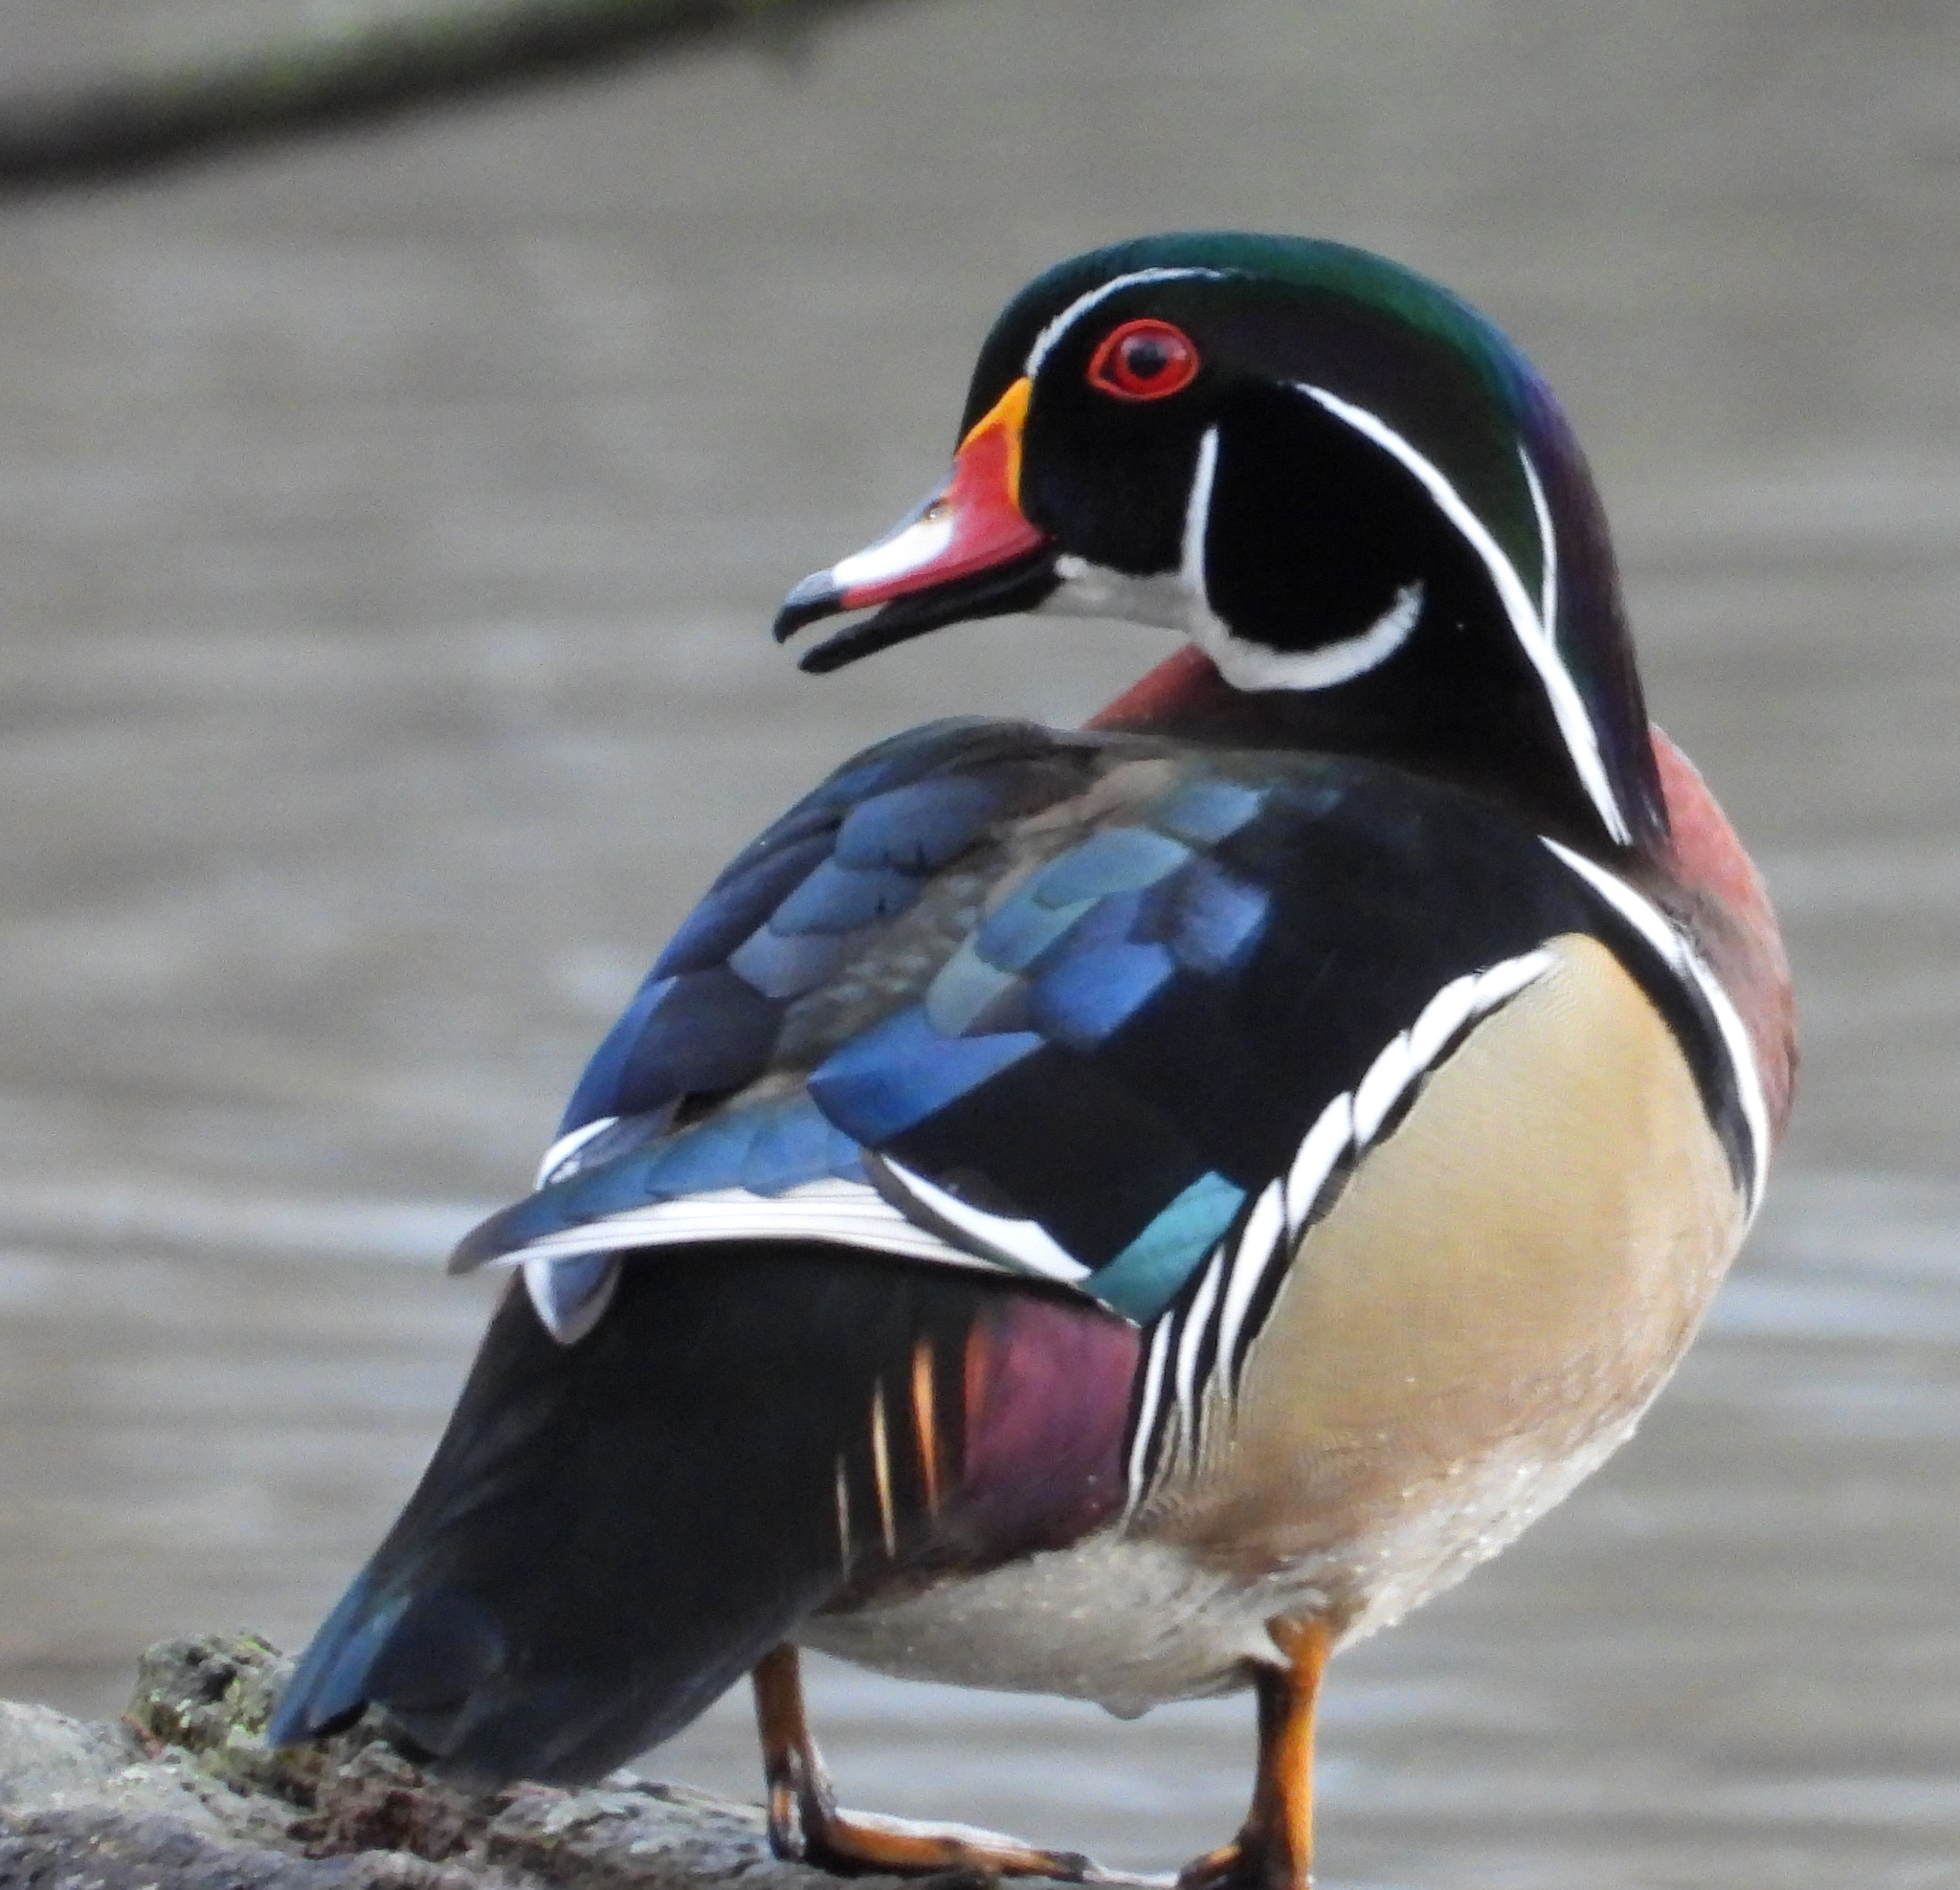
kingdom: Animalia
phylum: Chordata
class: Aves
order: Anseriformes
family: Anatidae
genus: Aix
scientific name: Aix sponsa
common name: Wood duck
